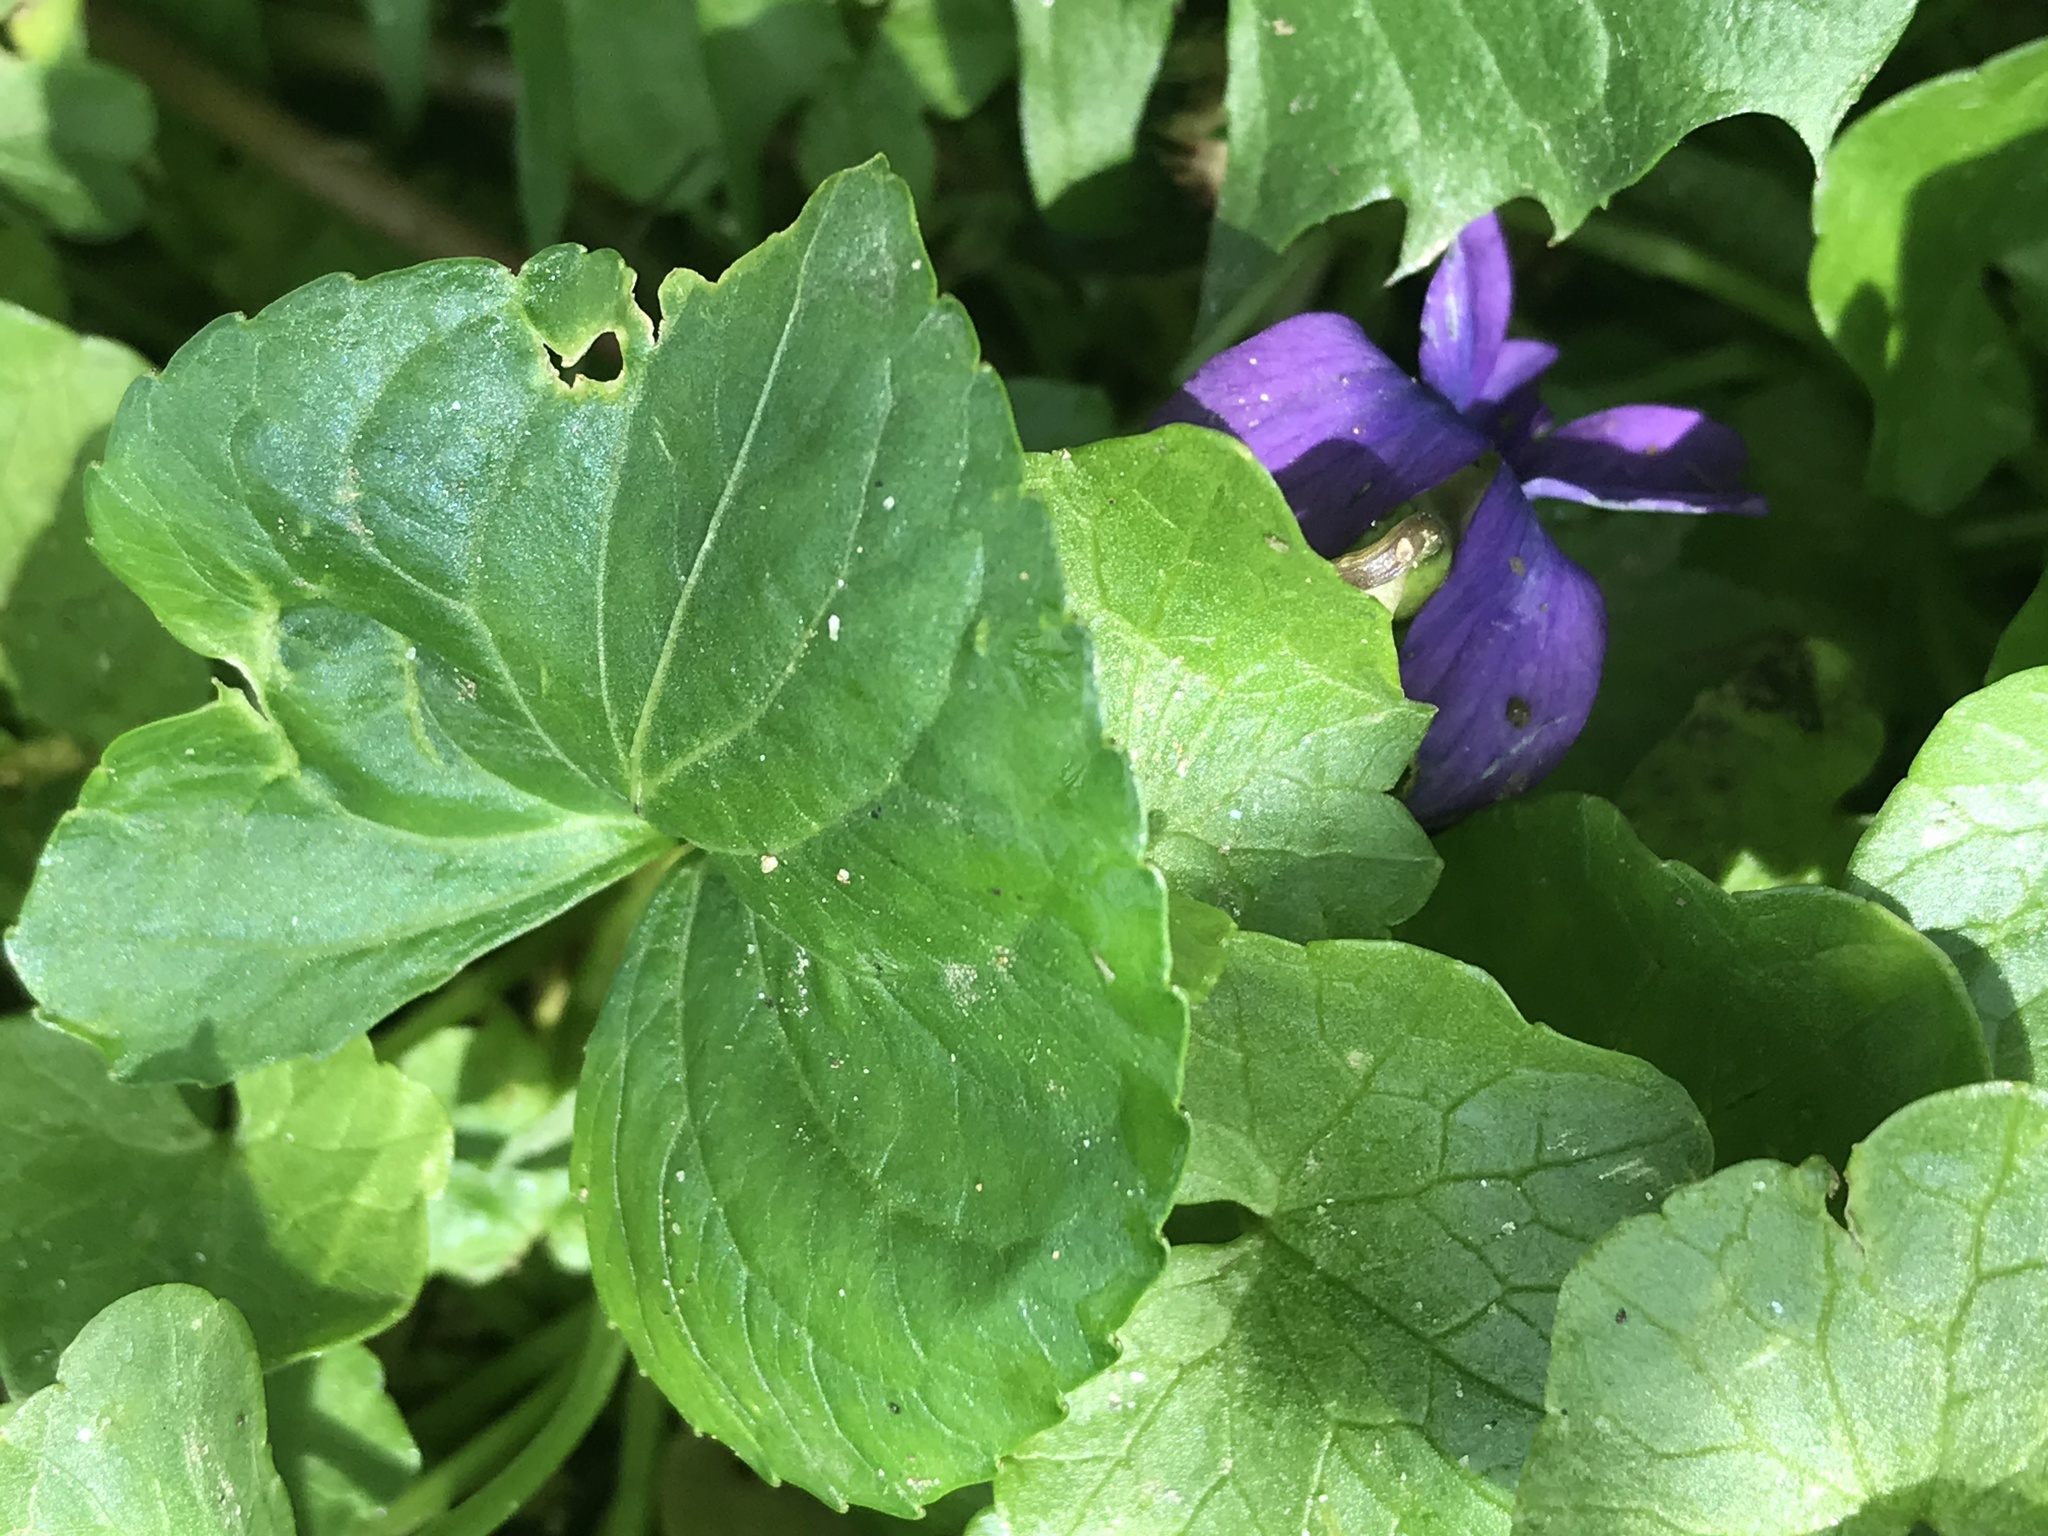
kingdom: Plantae
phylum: Tracheophyta
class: Magnoliopsida
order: Malpighiales
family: Violaceae
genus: Viola
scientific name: Viola sororia
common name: Dooryard violet
